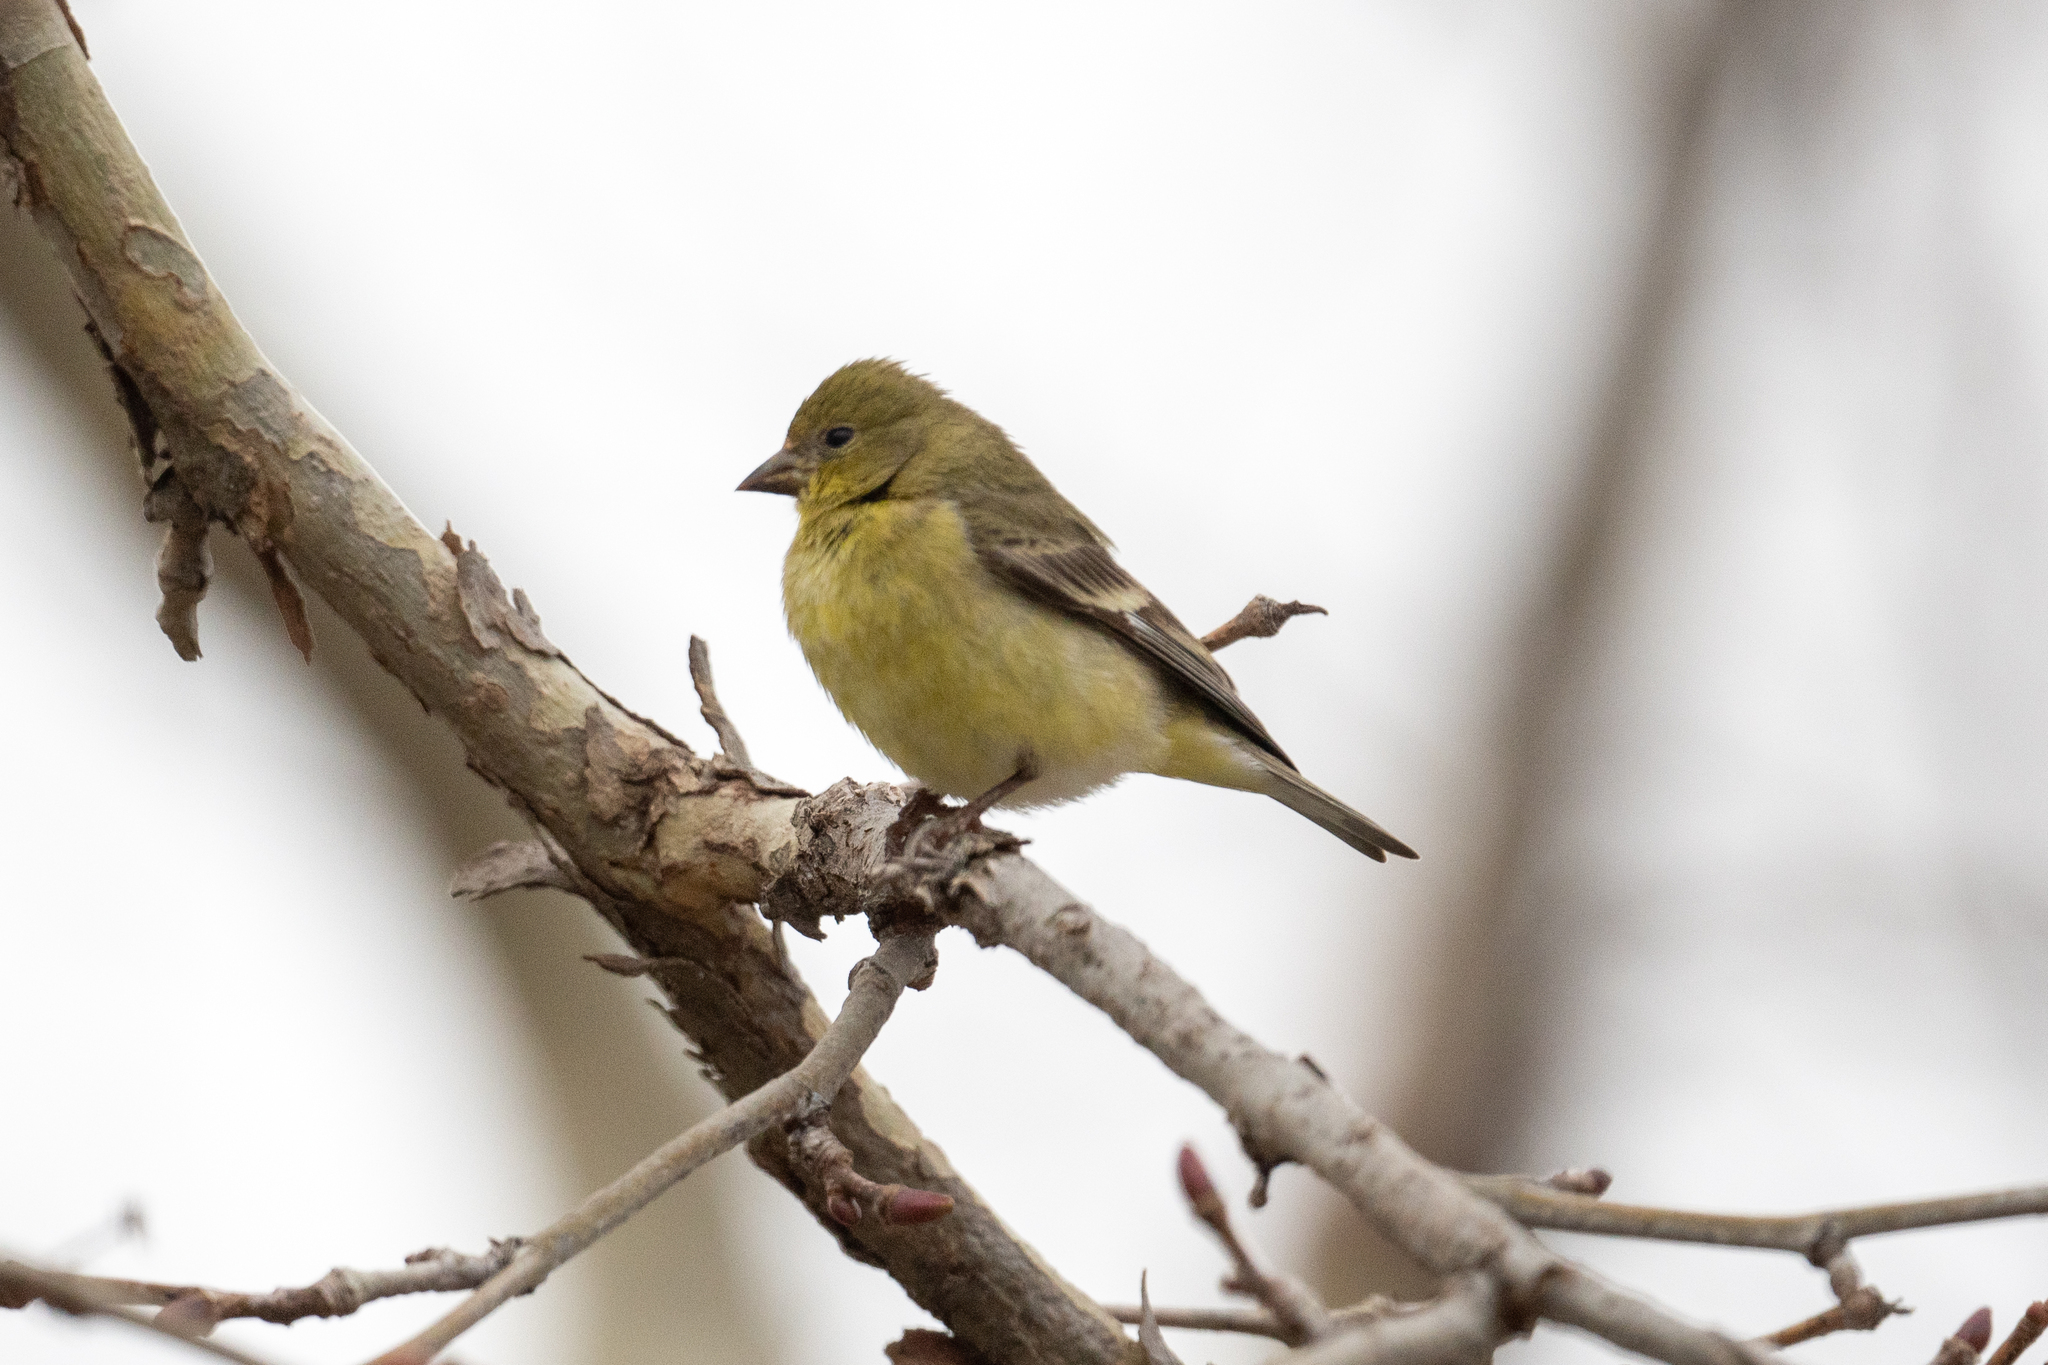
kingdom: Animalia
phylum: Chordata
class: Aves
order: Passeriformes
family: Fringillidae
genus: Spinus
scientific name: Spinus psaltria
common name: Lesser goldfinch
